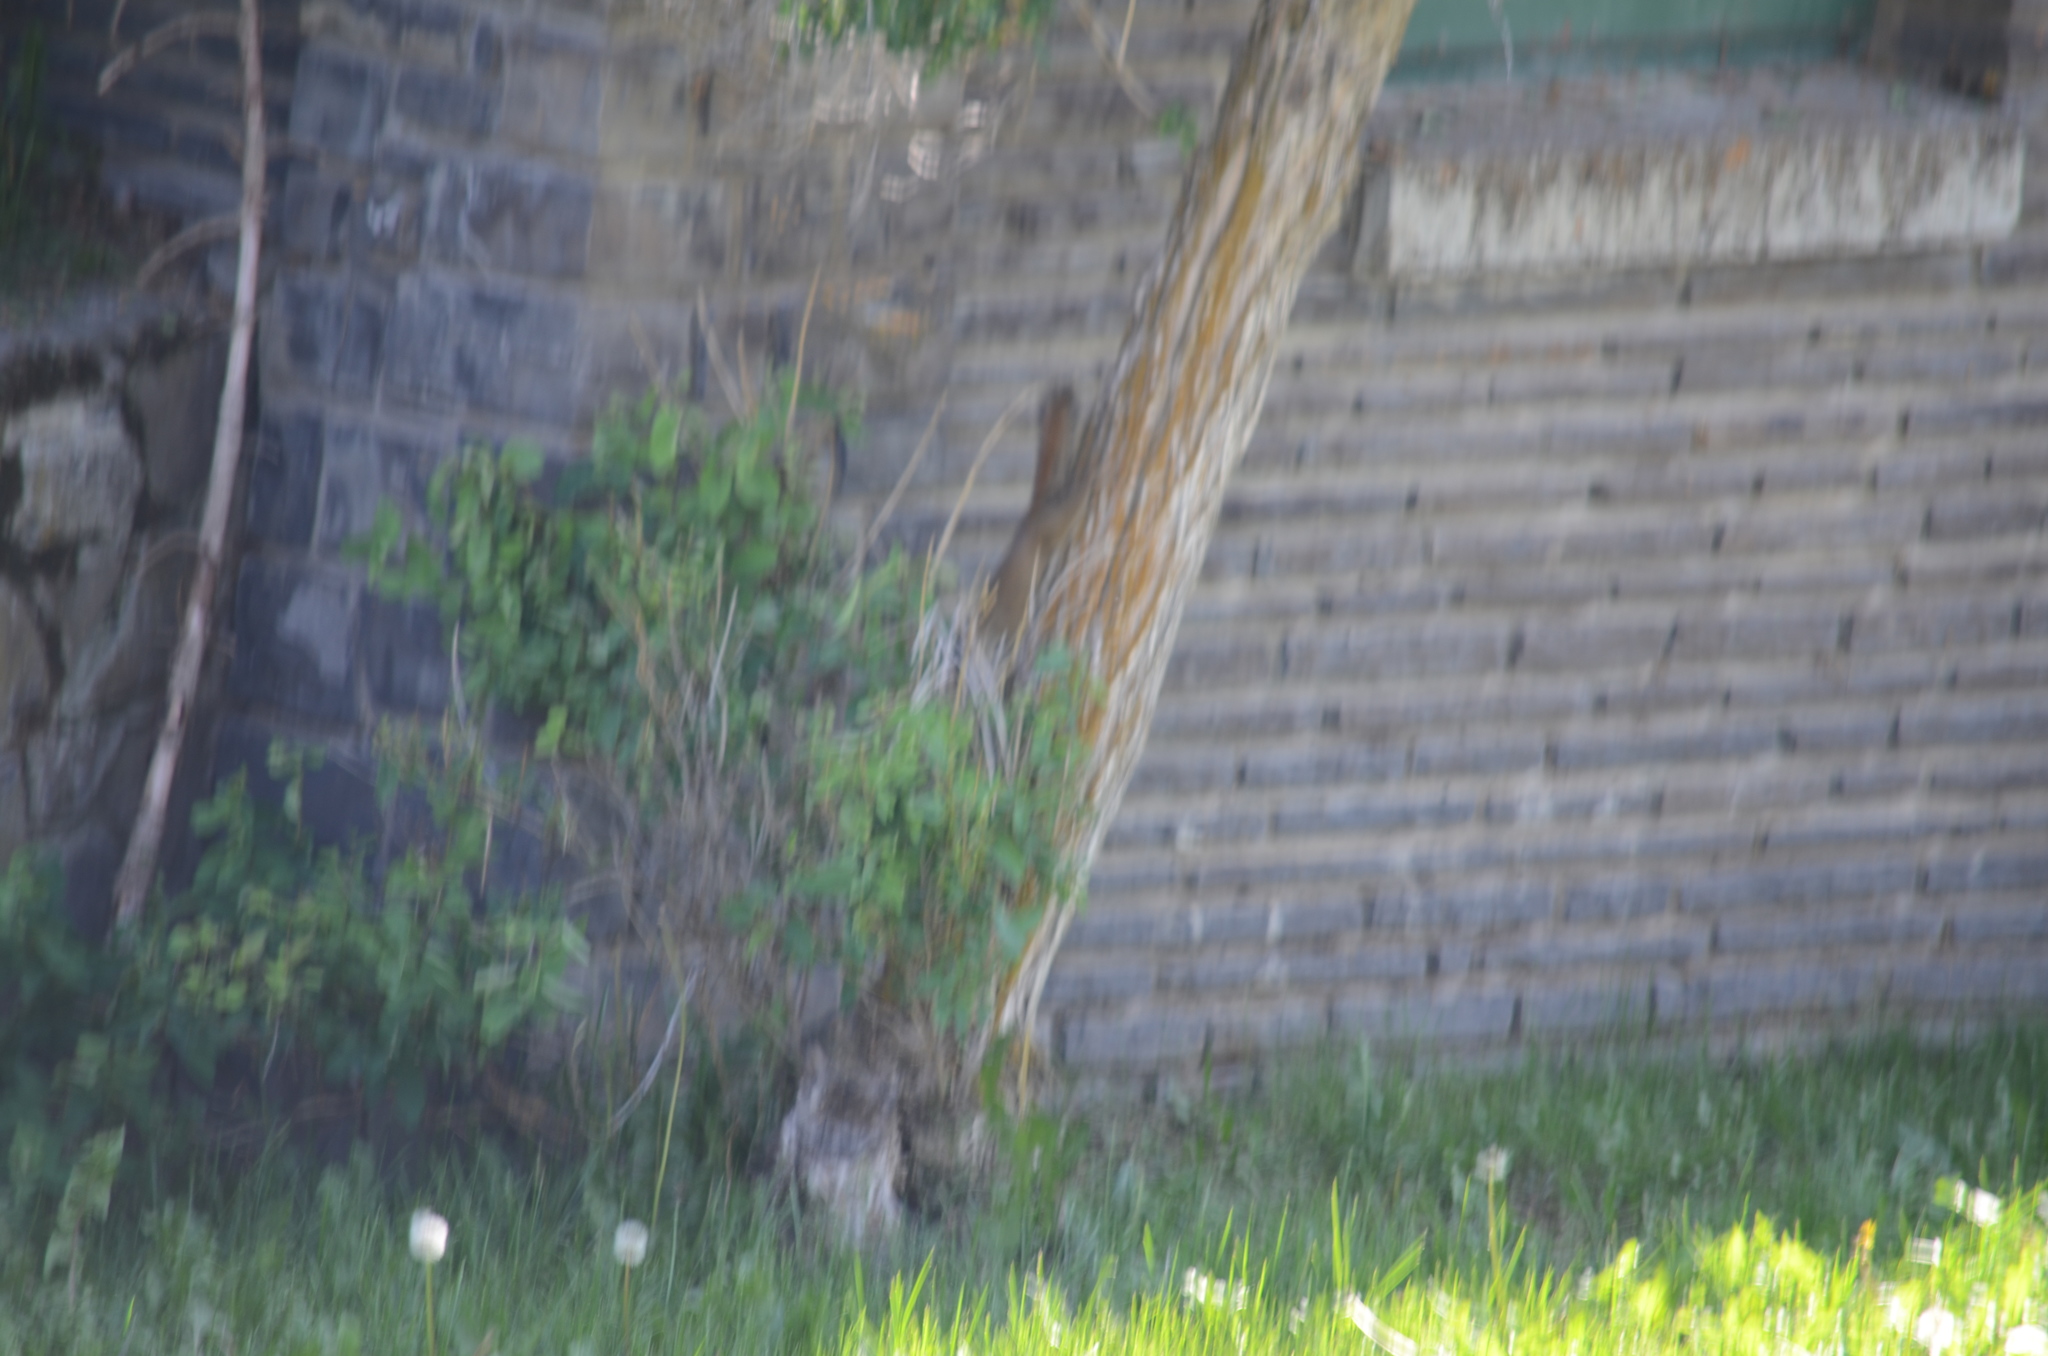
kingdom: Animalia
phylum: Chordata
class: Mammalia
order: Rodentia
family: Sciuridae
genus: Tamiasciurus
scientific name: Tamiasciurus hudsonicus
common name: Red squirrel
